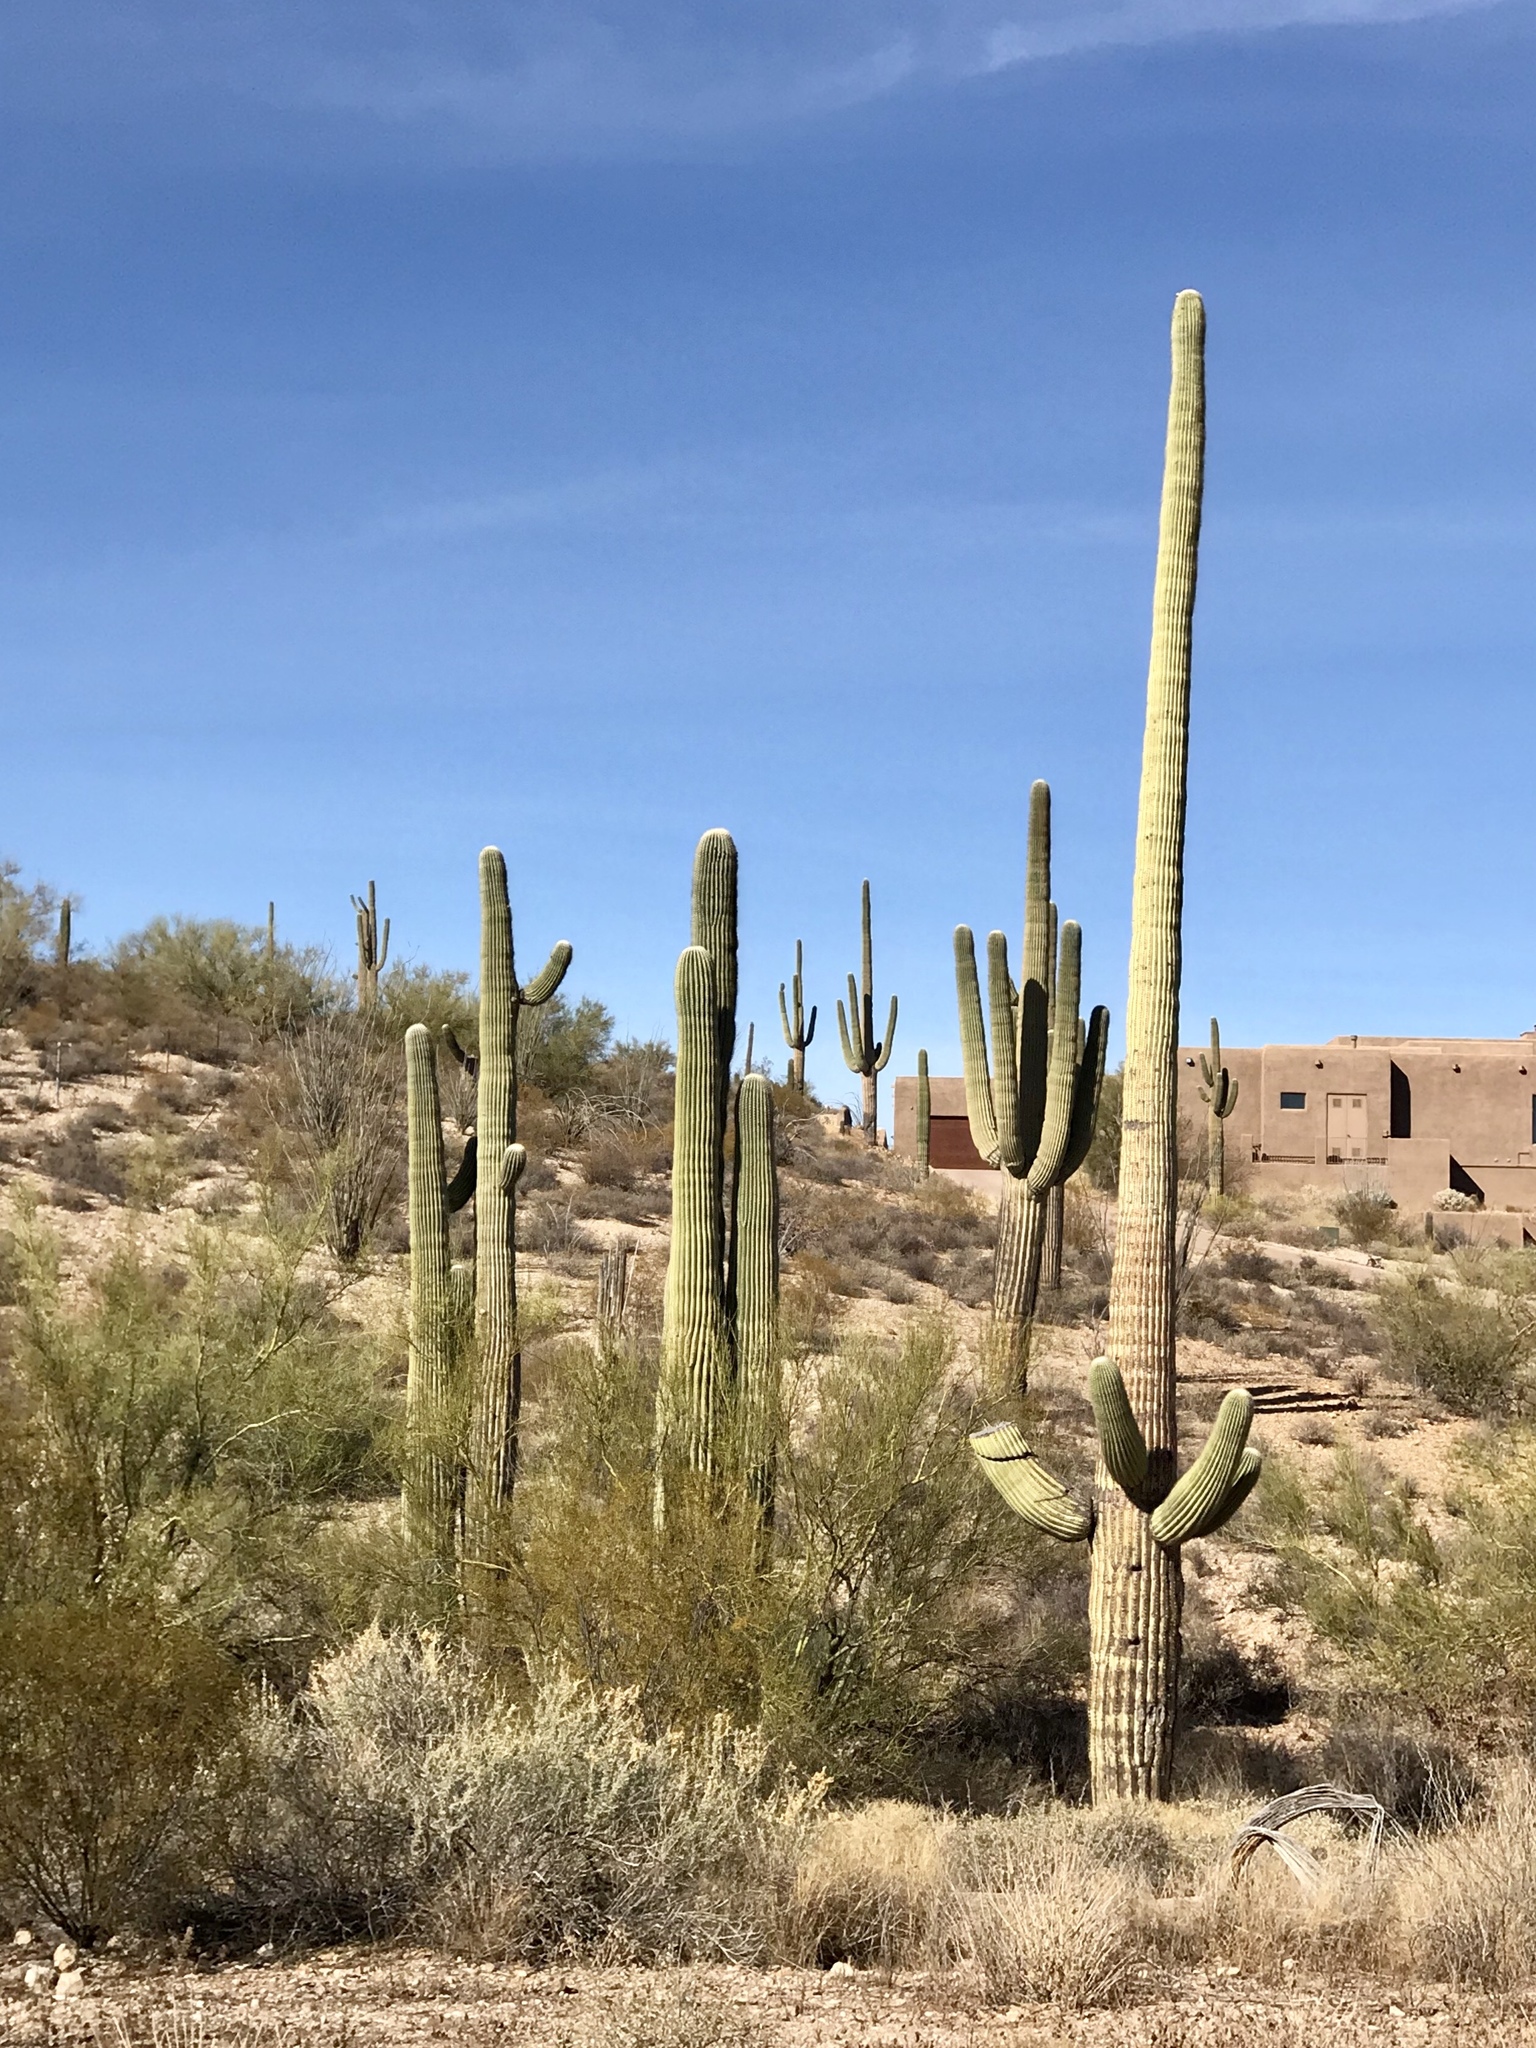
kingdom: Plantae
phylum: Tracheophyta
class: Magnoliopsida
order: Caryophyllales
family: Cactaceae
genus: Carnegiea
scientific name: Carnegiea gigantea
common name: Saguaro
